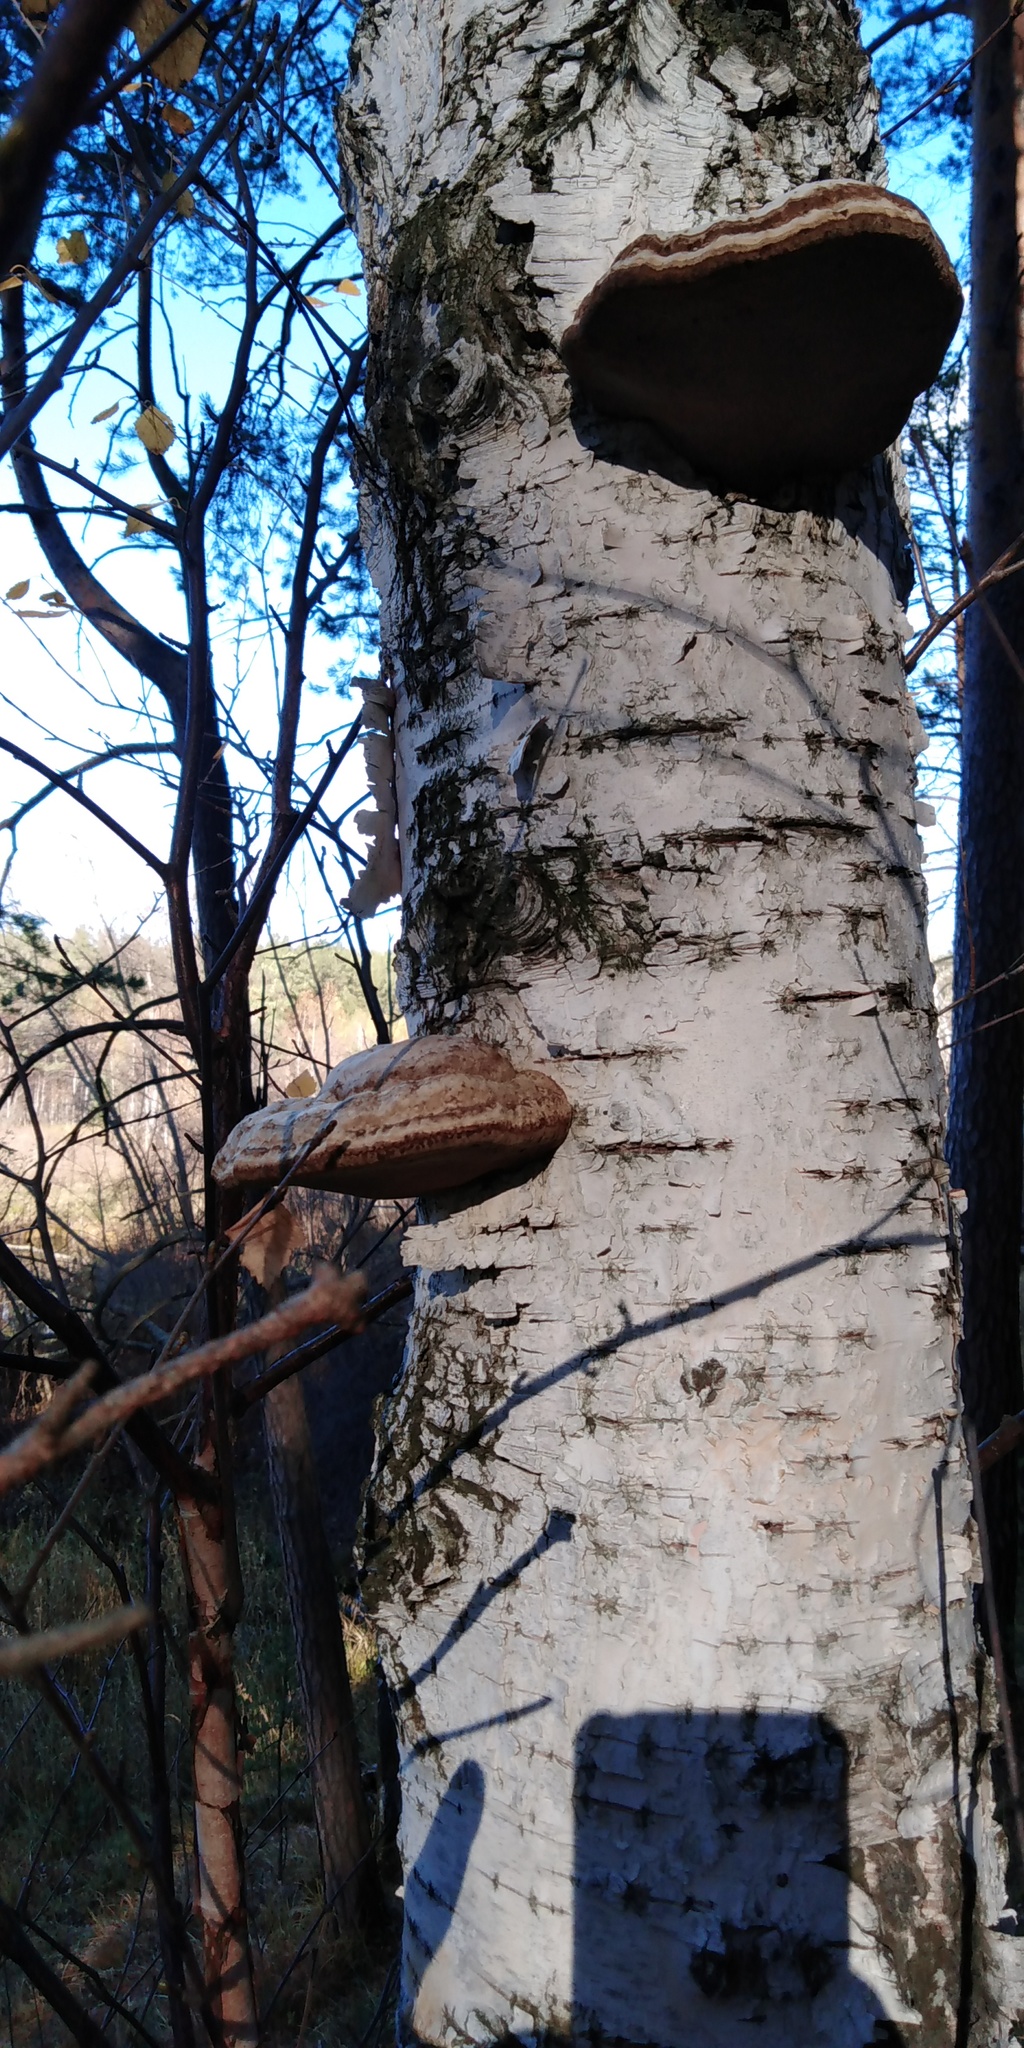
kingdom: Fungi
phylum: Basidiomycota
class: Agaricomycetes
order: Polyporales
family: Polyporaceae
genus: Fomes
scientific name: Fomes fomentarius
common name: Hoof fungus
